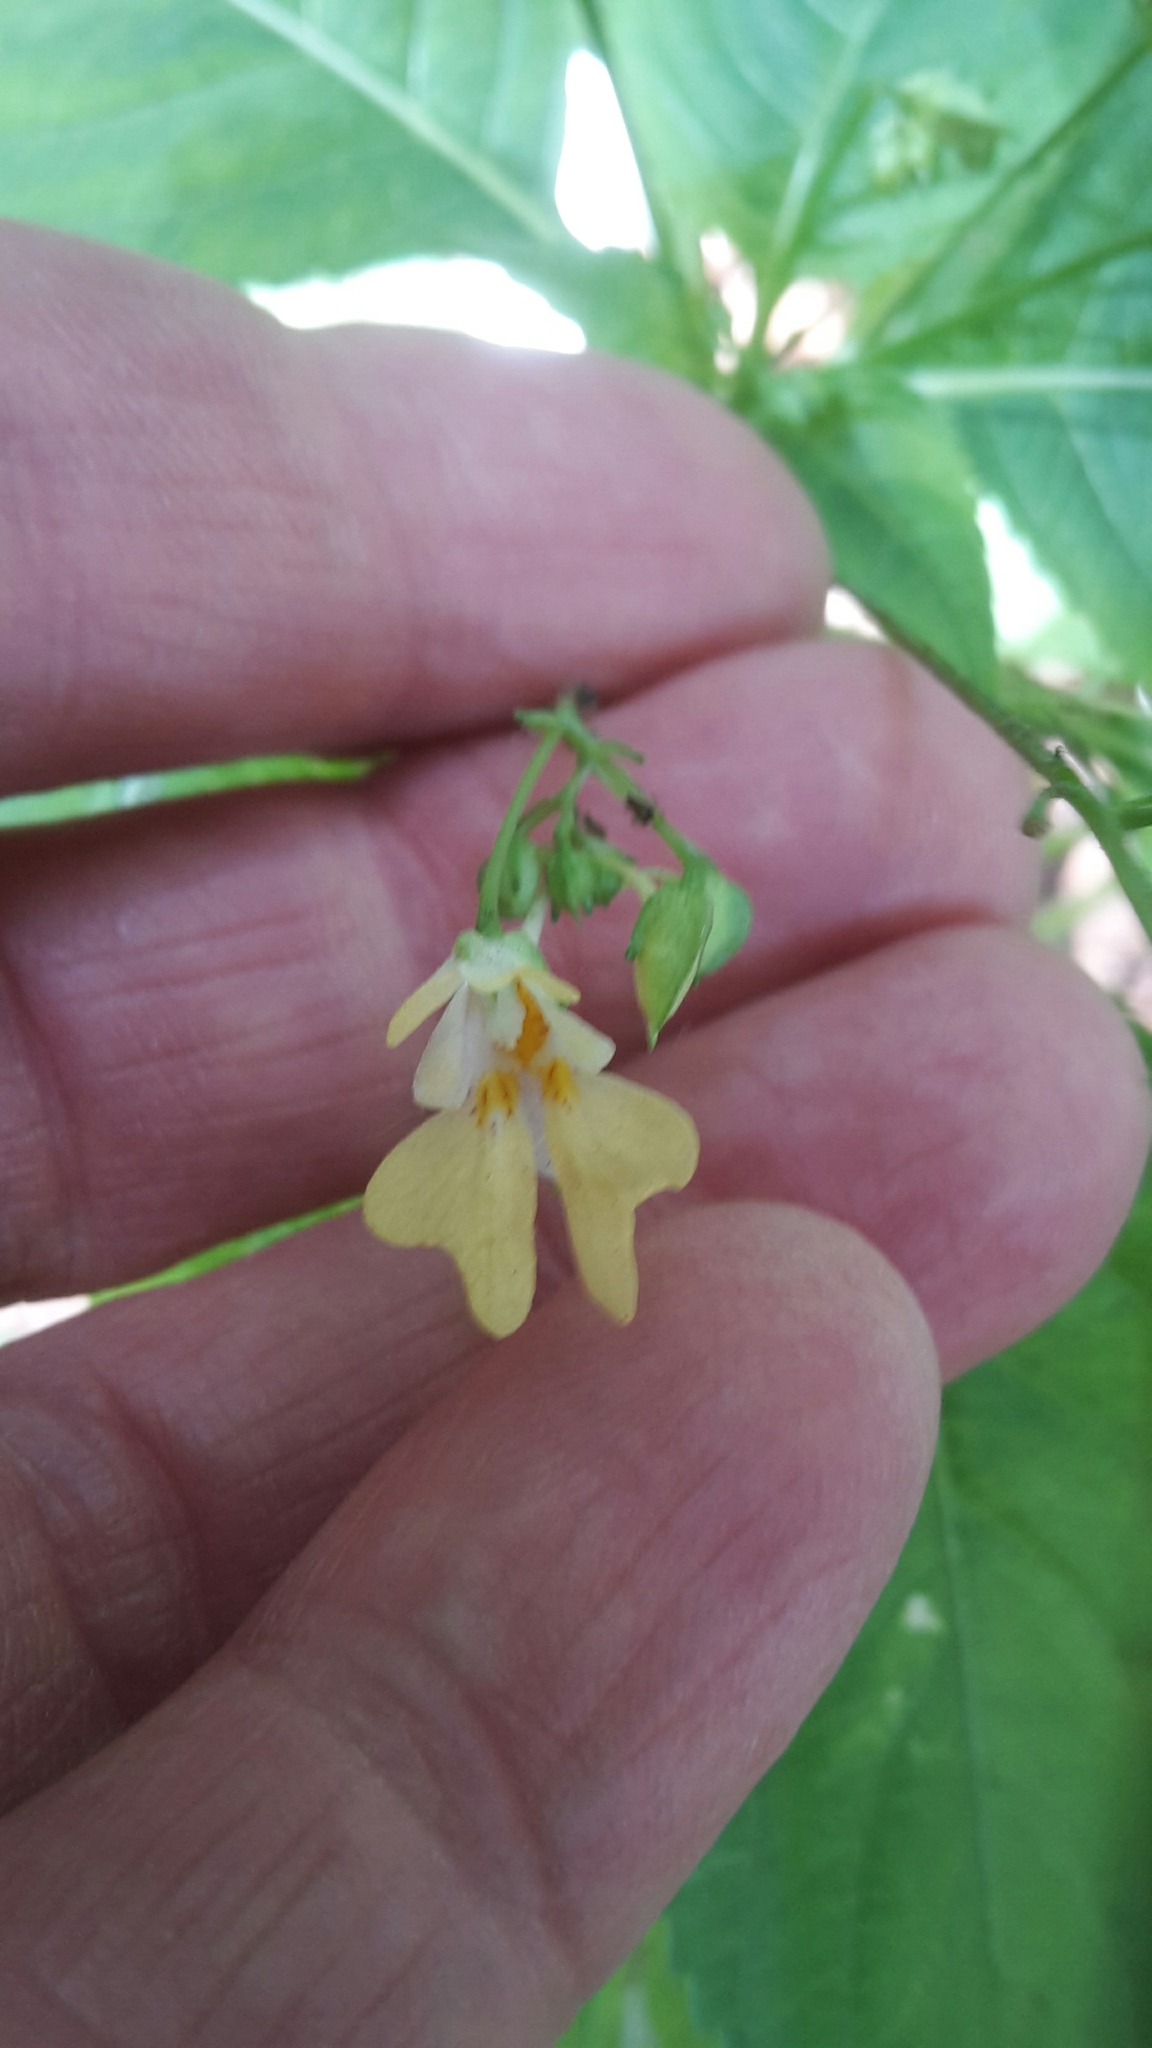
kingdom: Plantae
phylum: Tracheophyta
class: Magnoliopsida
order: Ericales
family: Balsaminaceae
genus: Impatiens
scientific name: Impatiens parviflora
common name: Small balsam
